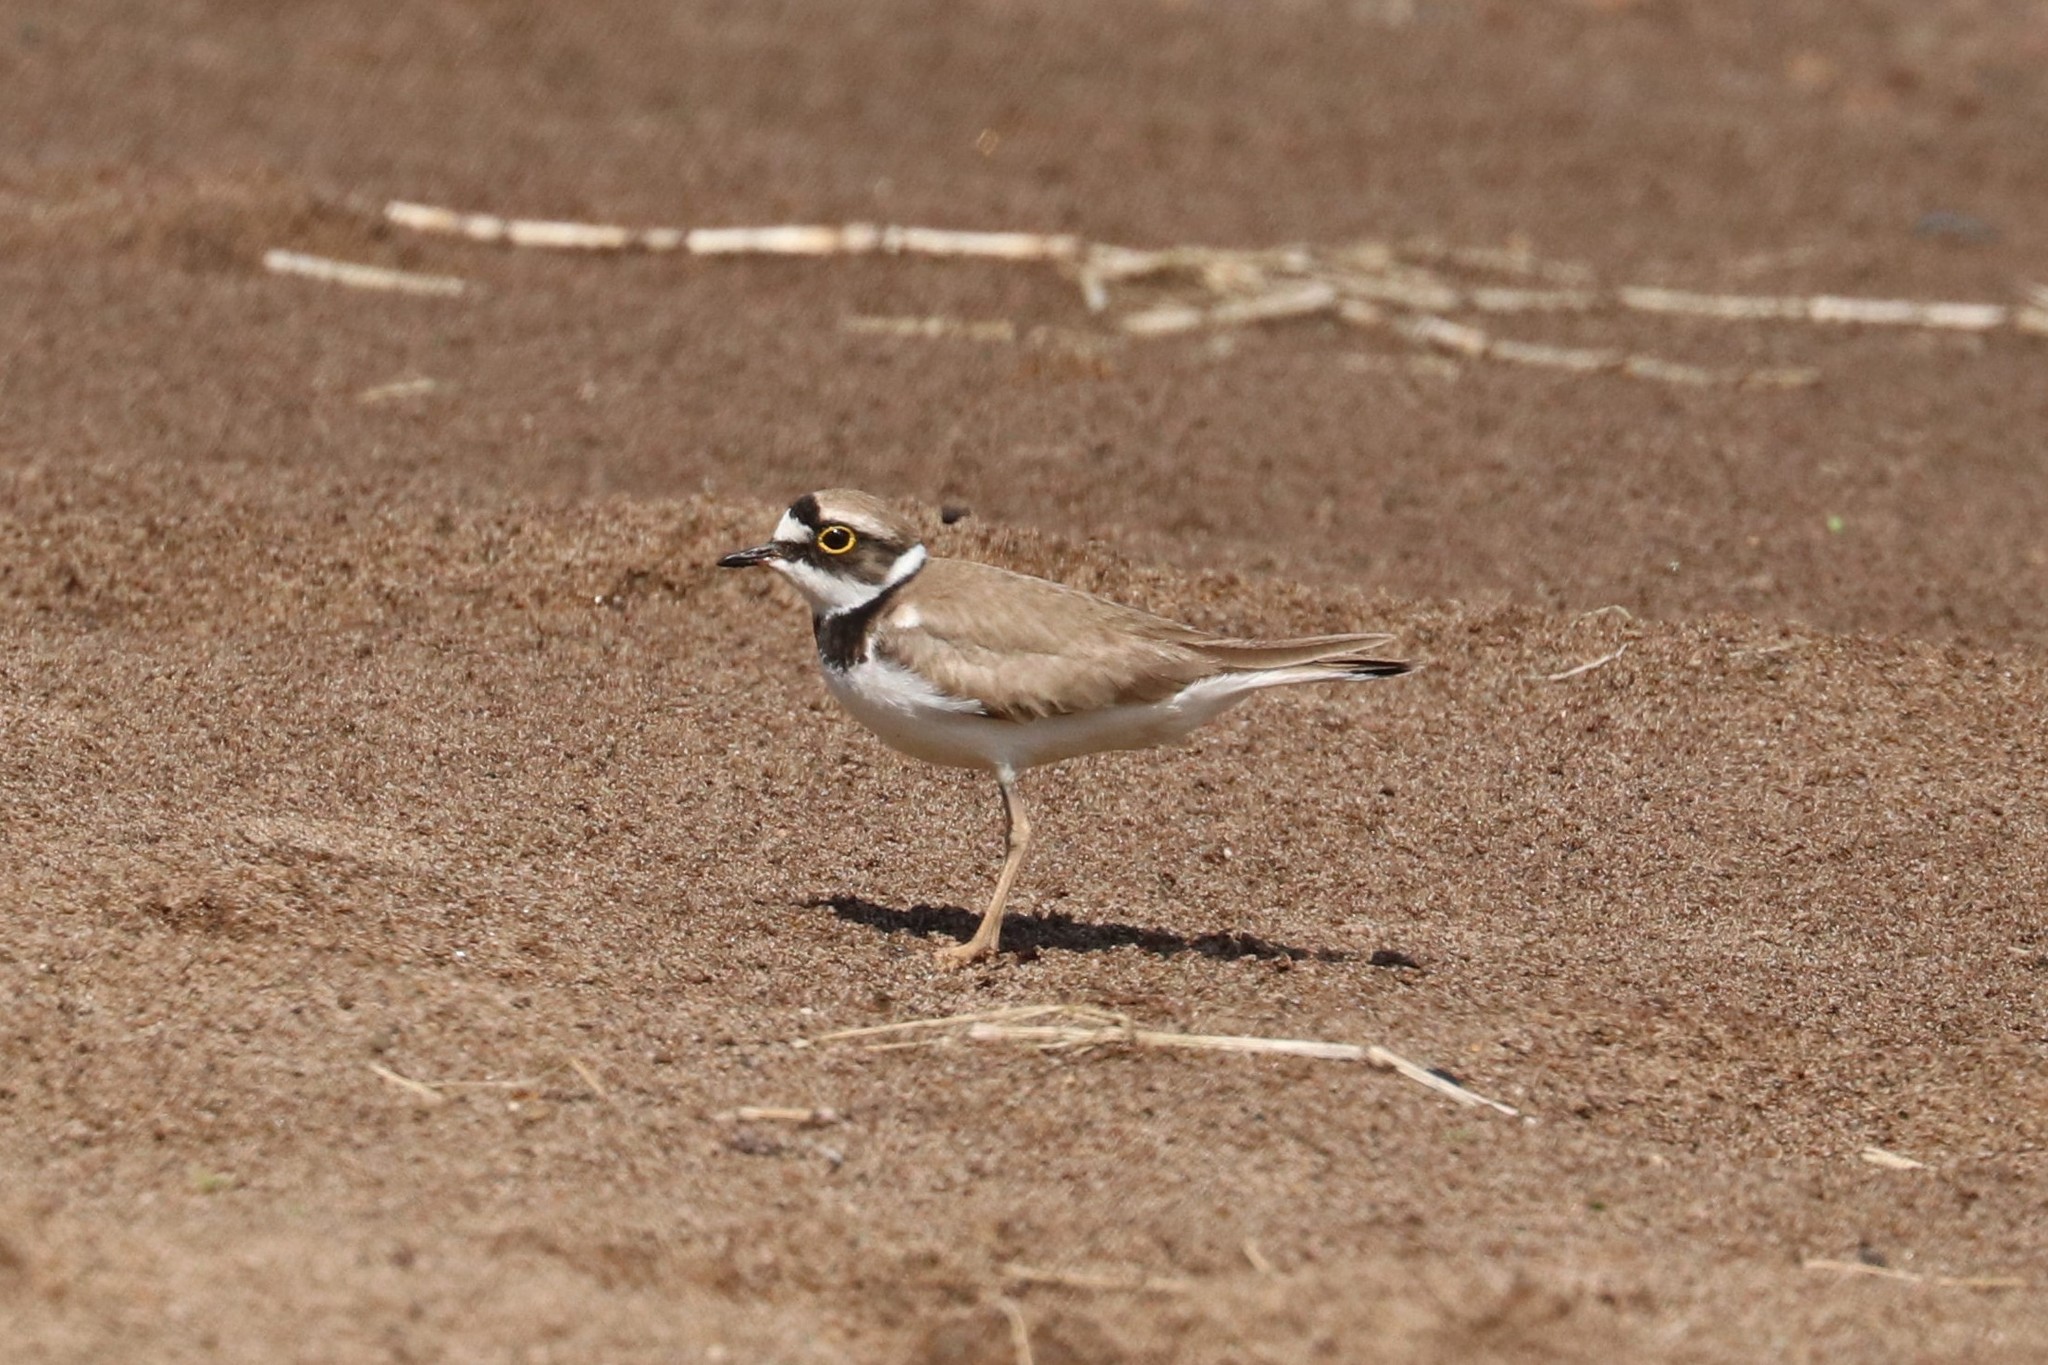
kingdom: Animalia
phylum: Chordata
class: Aves
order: Charadriiformes
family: Charadriidae
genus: Charadrius
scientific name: Charadrius dubius
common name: Little ringed plover
